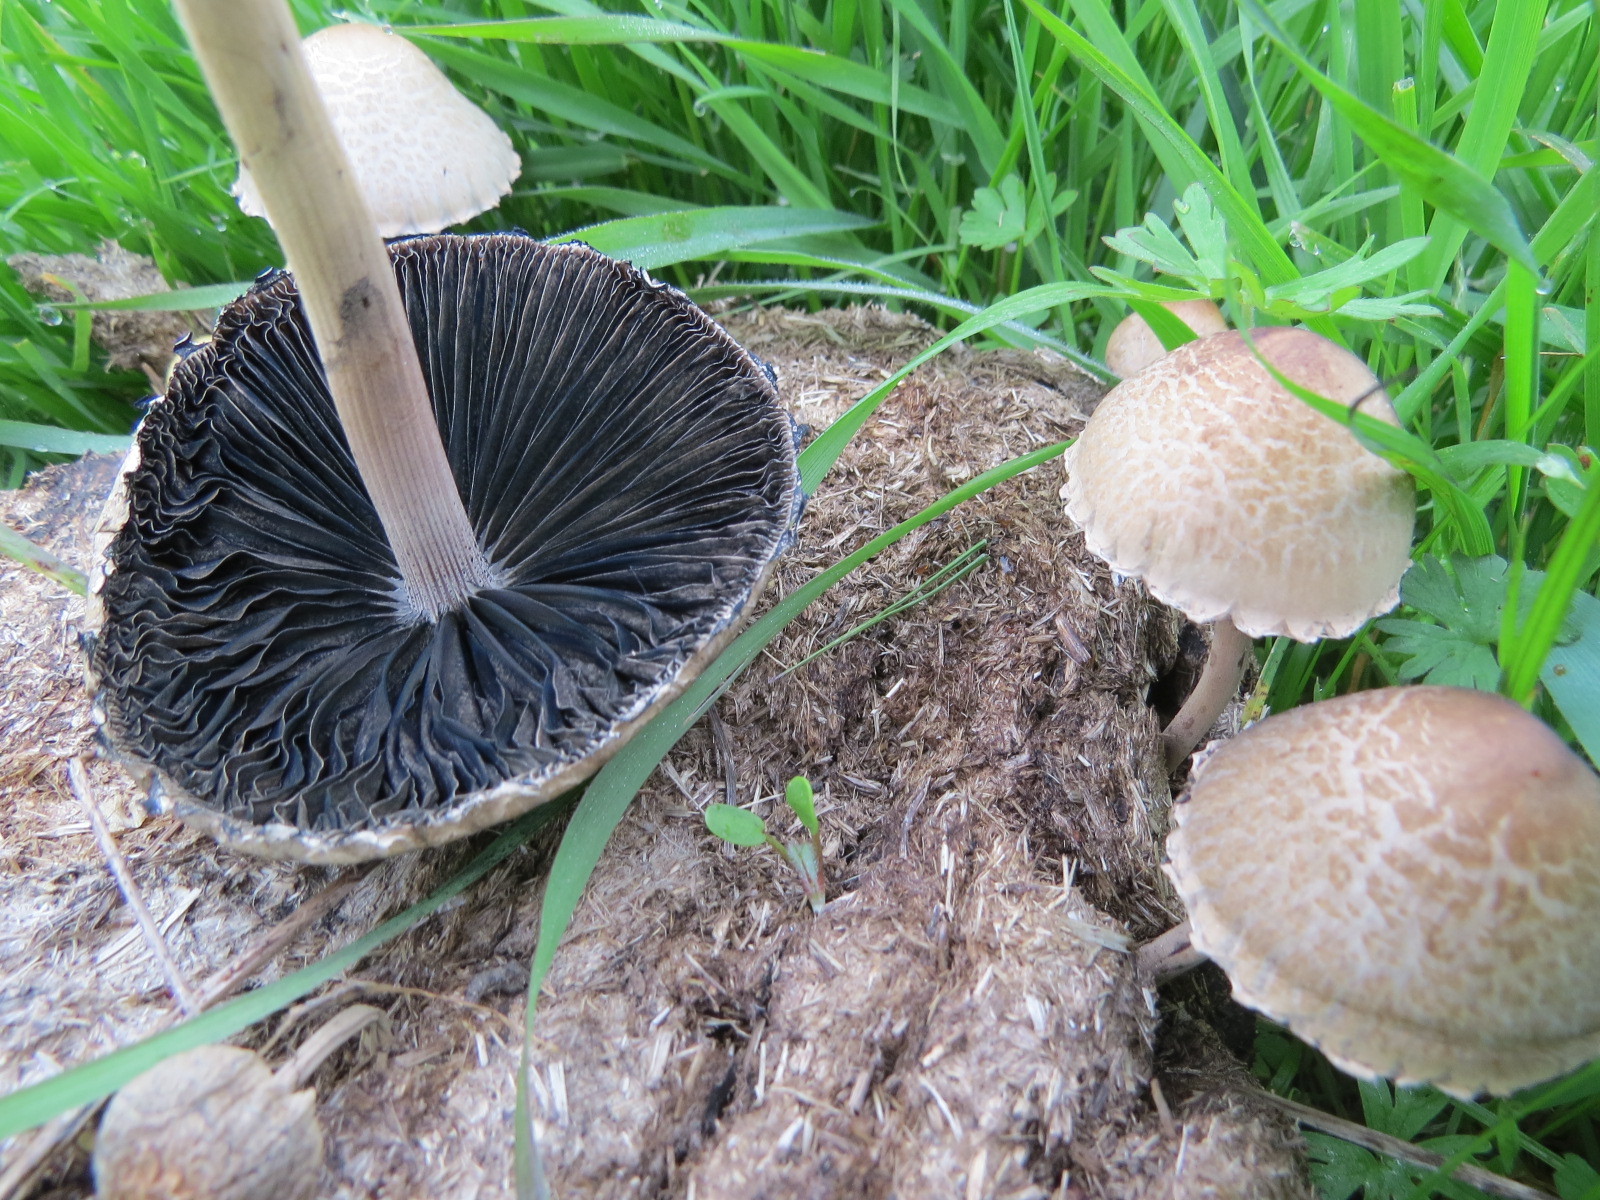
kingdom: Fungi
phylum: Basidiomycota
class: Agaricomycetes
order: Agaricales
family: Bolbitiaceae
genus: Panaeolus
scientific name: Panaeolus papilionaceus
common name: Petticoat mottlegill
